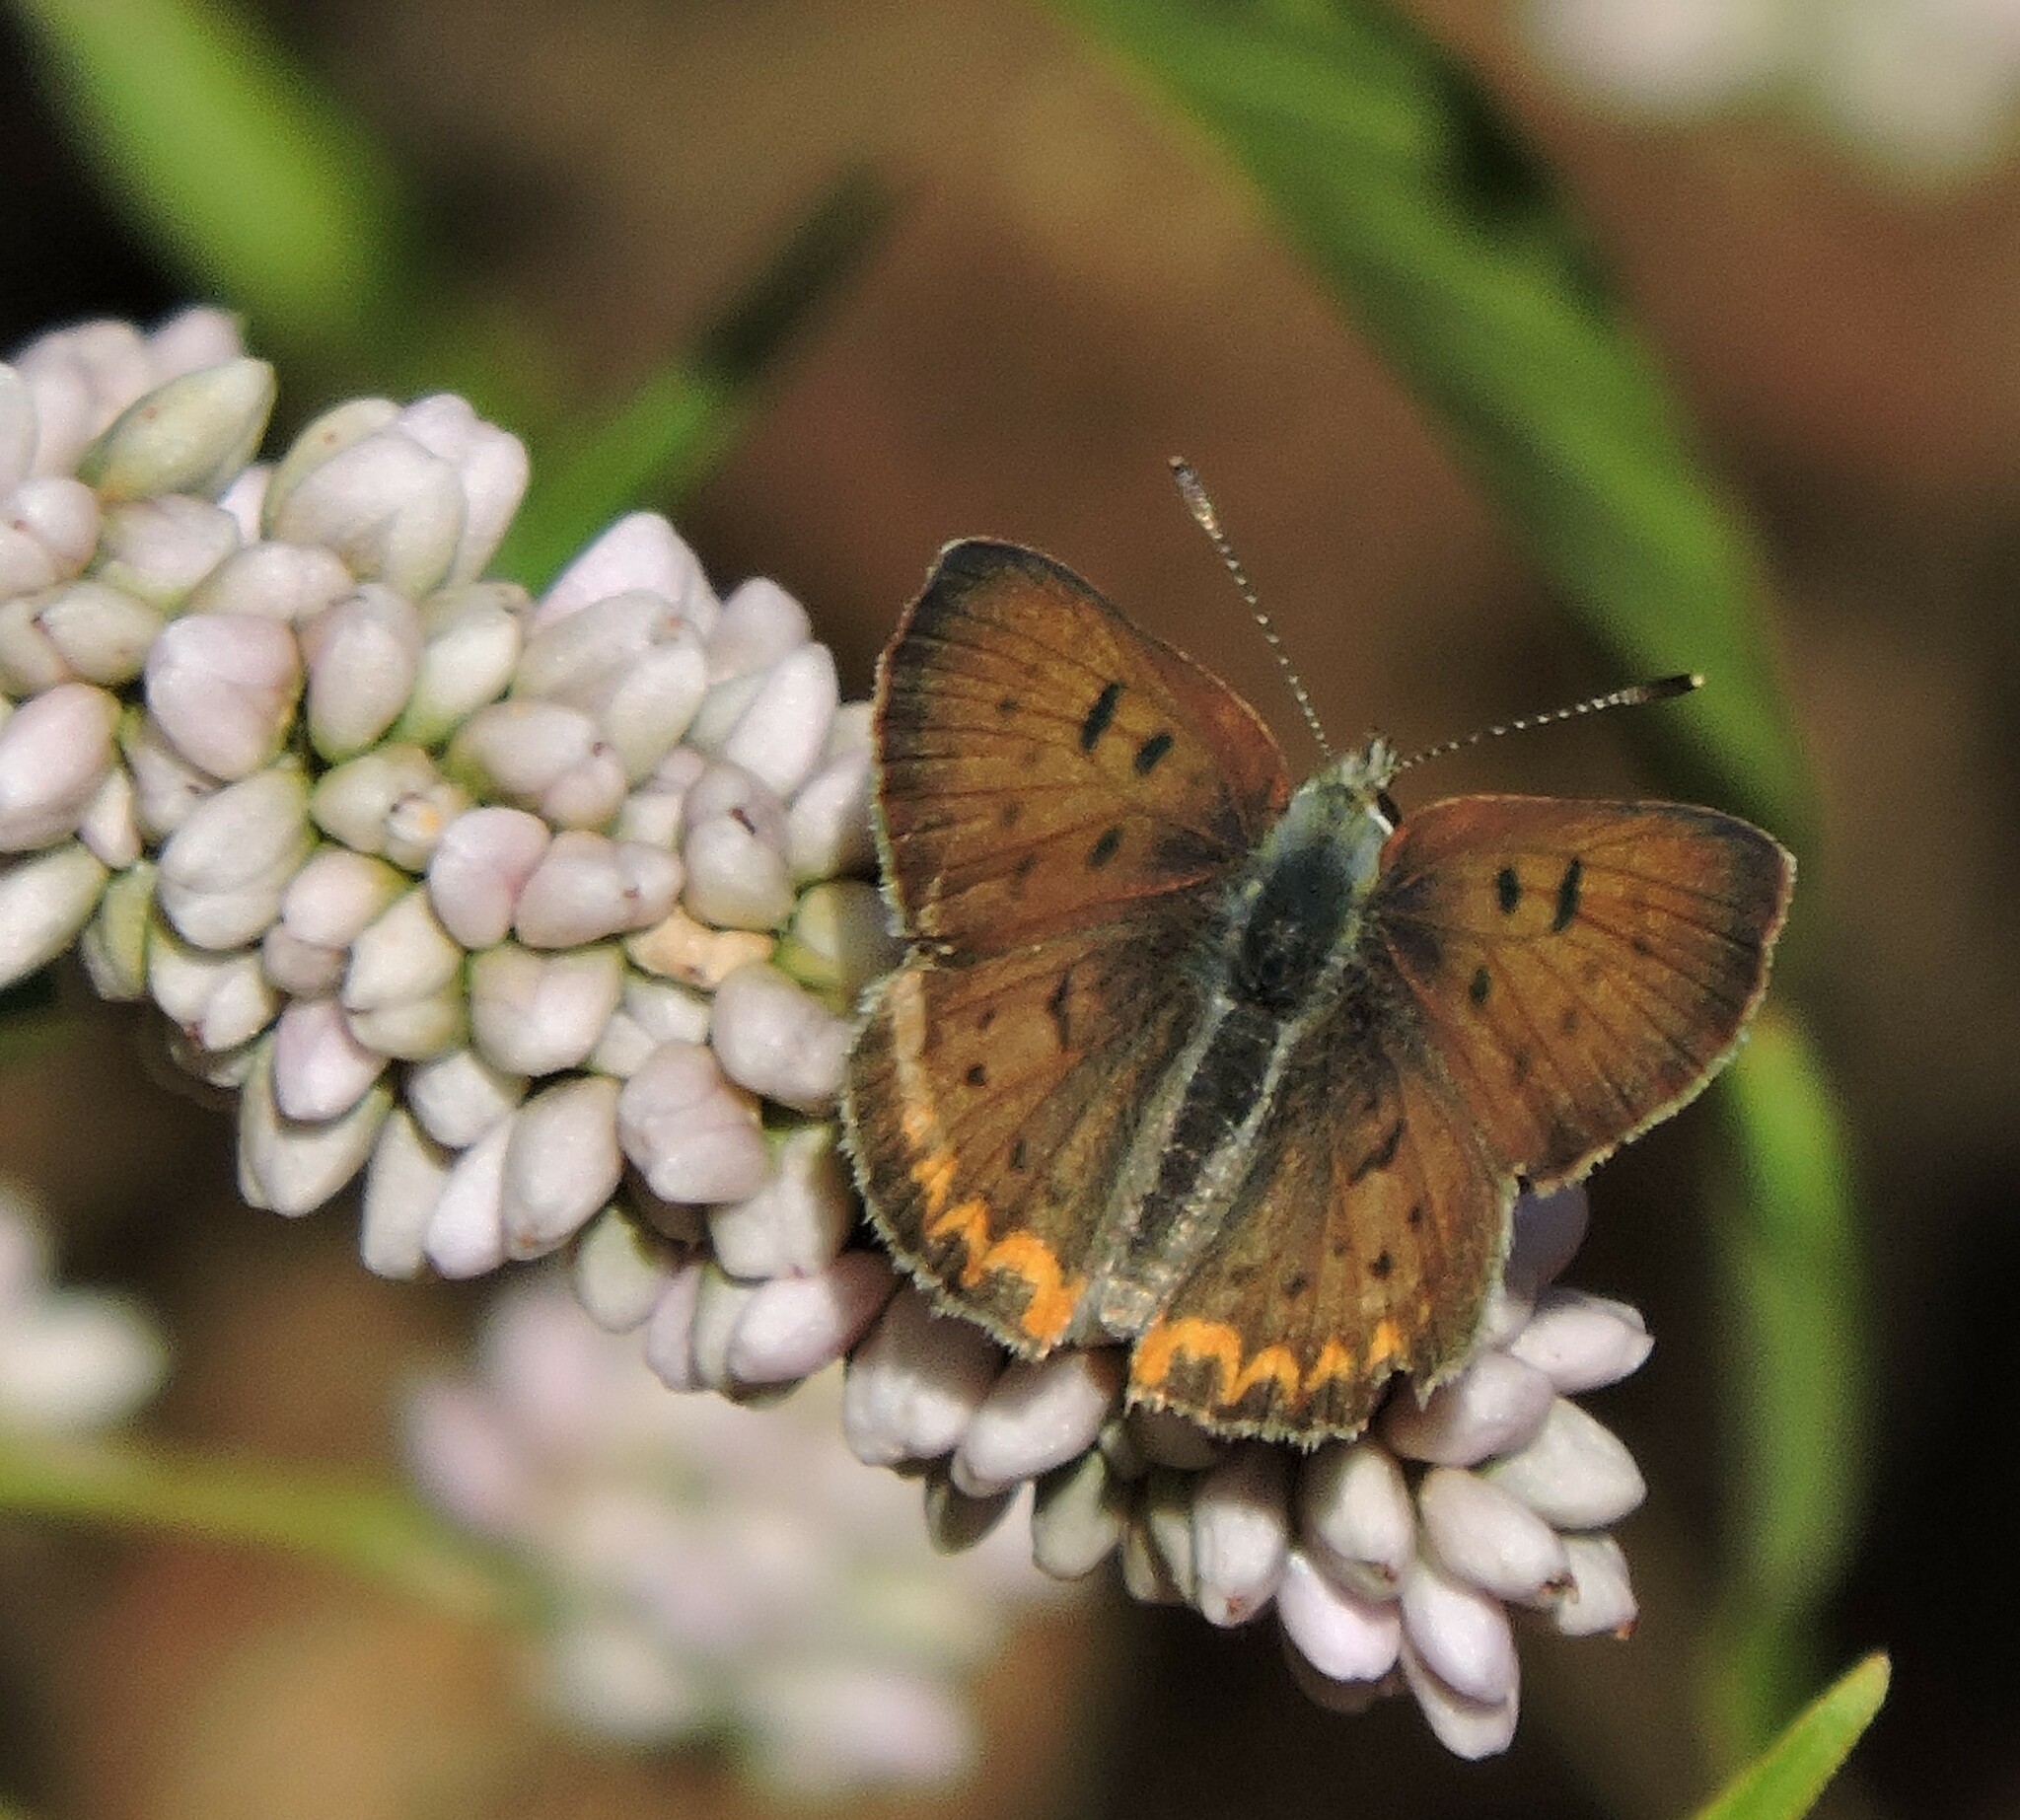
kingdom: Animalia
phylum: Arthropoda
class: Insecta
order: Lepidoptera
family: Lycaenidae
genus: Tharsalea
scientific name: Tharsalea helloides
